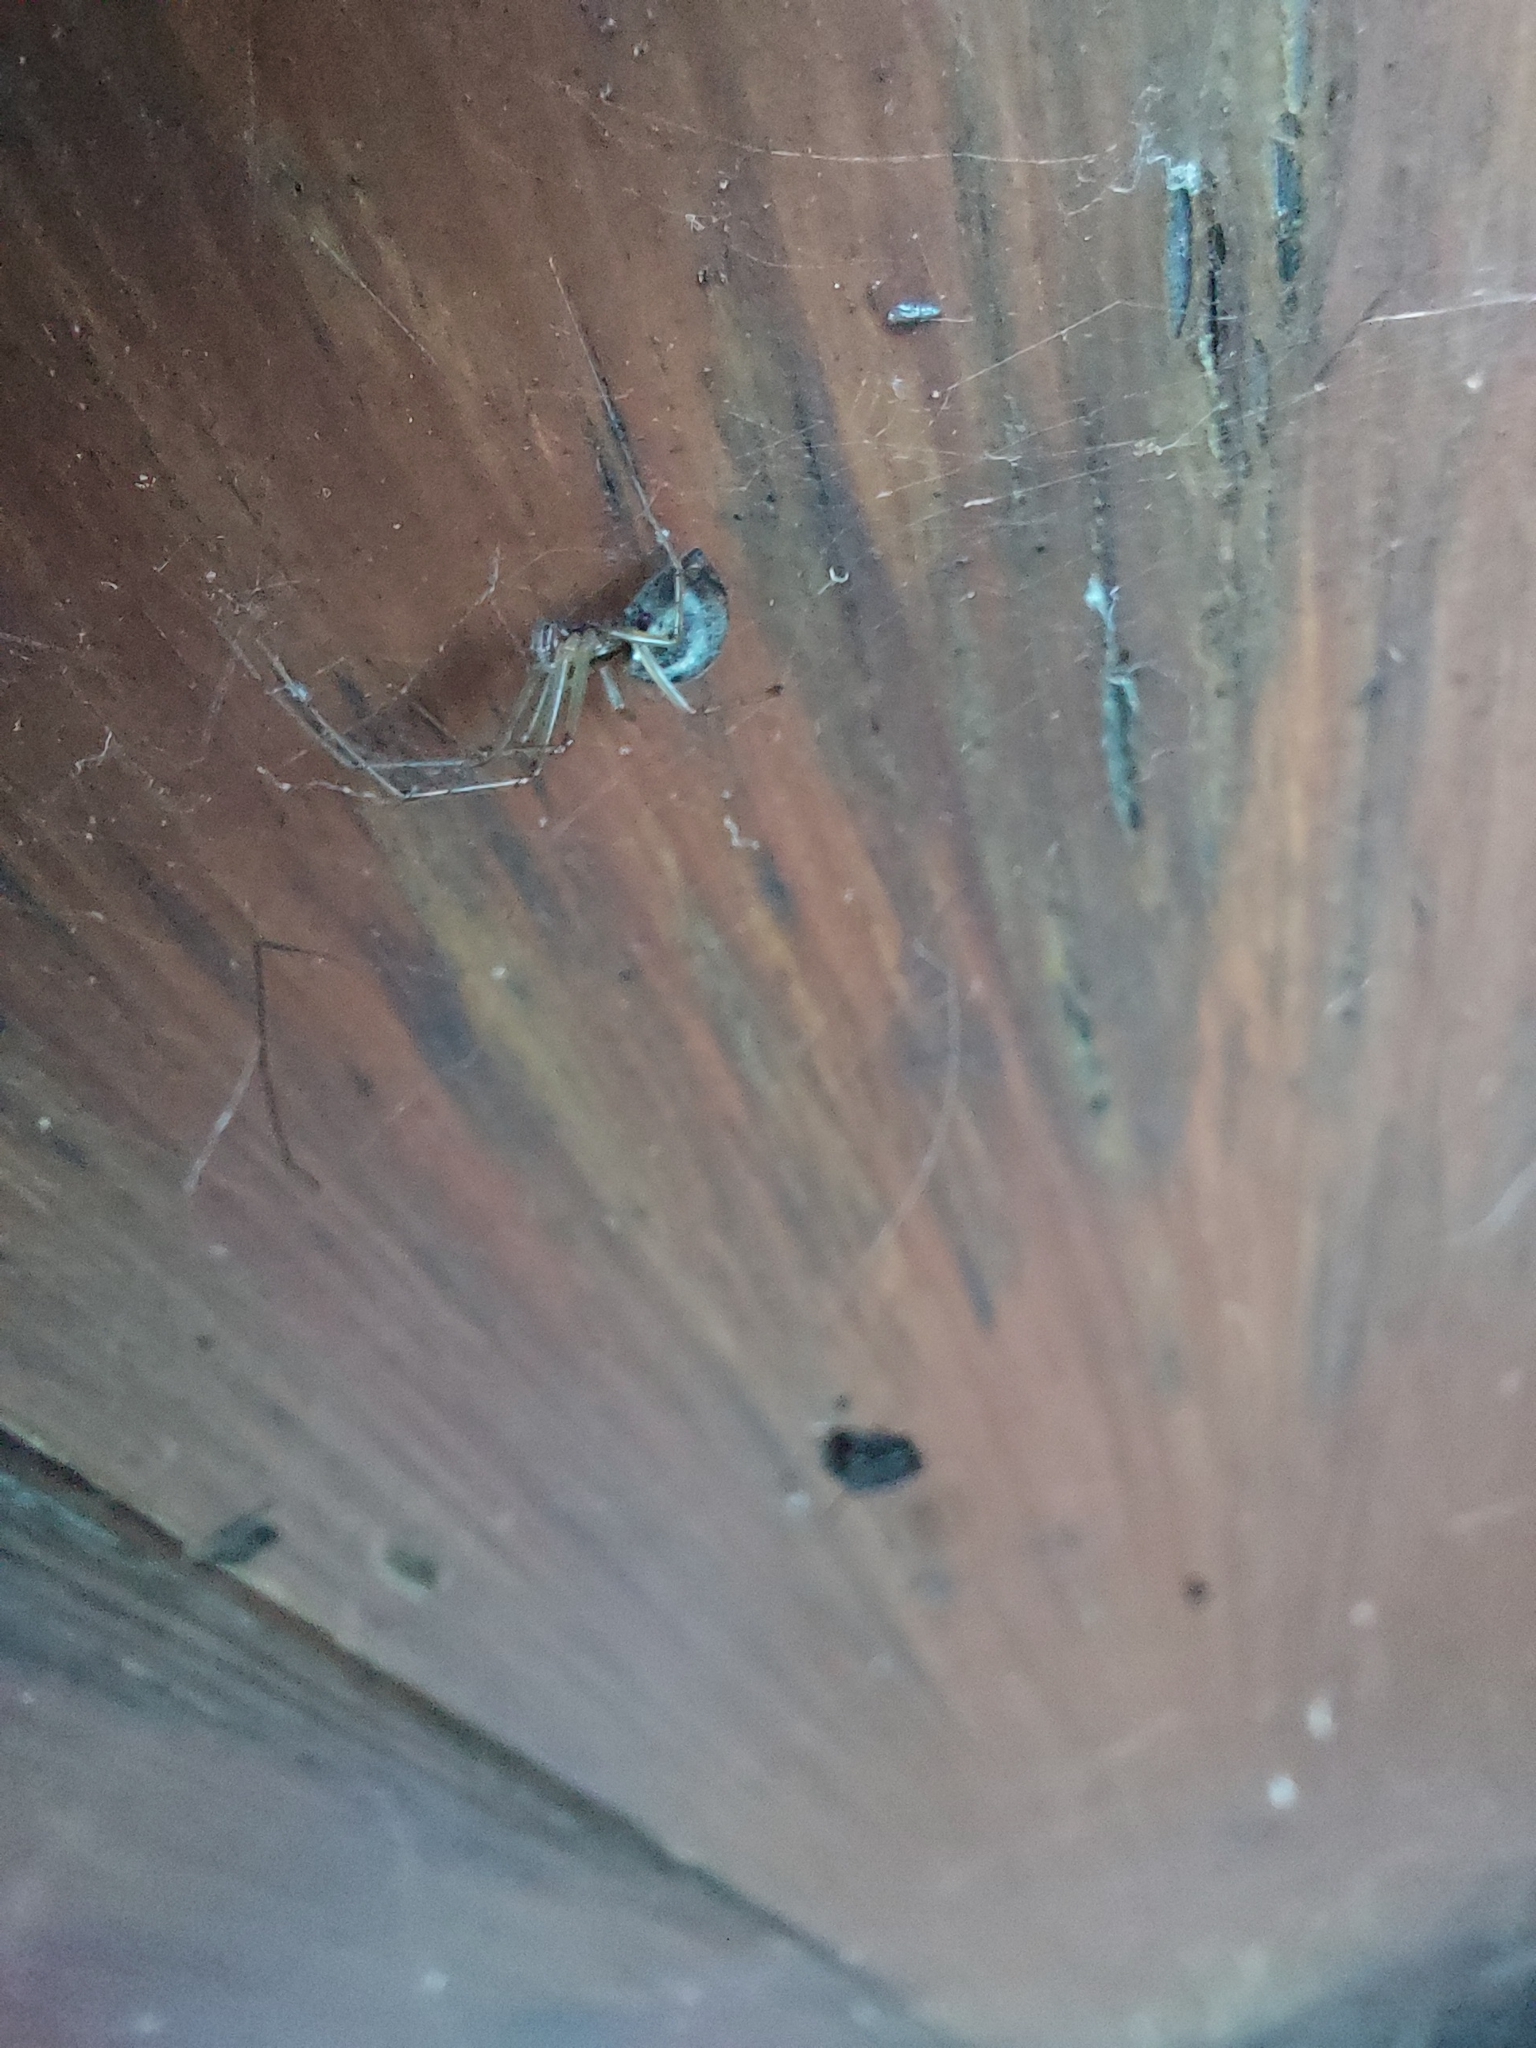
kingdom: Animalia
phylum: Arthropoda
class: Arachnida
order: Araneae
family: Linyphiidae
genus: Linyphia
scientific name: Linyphia triangularis
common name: Money spider
